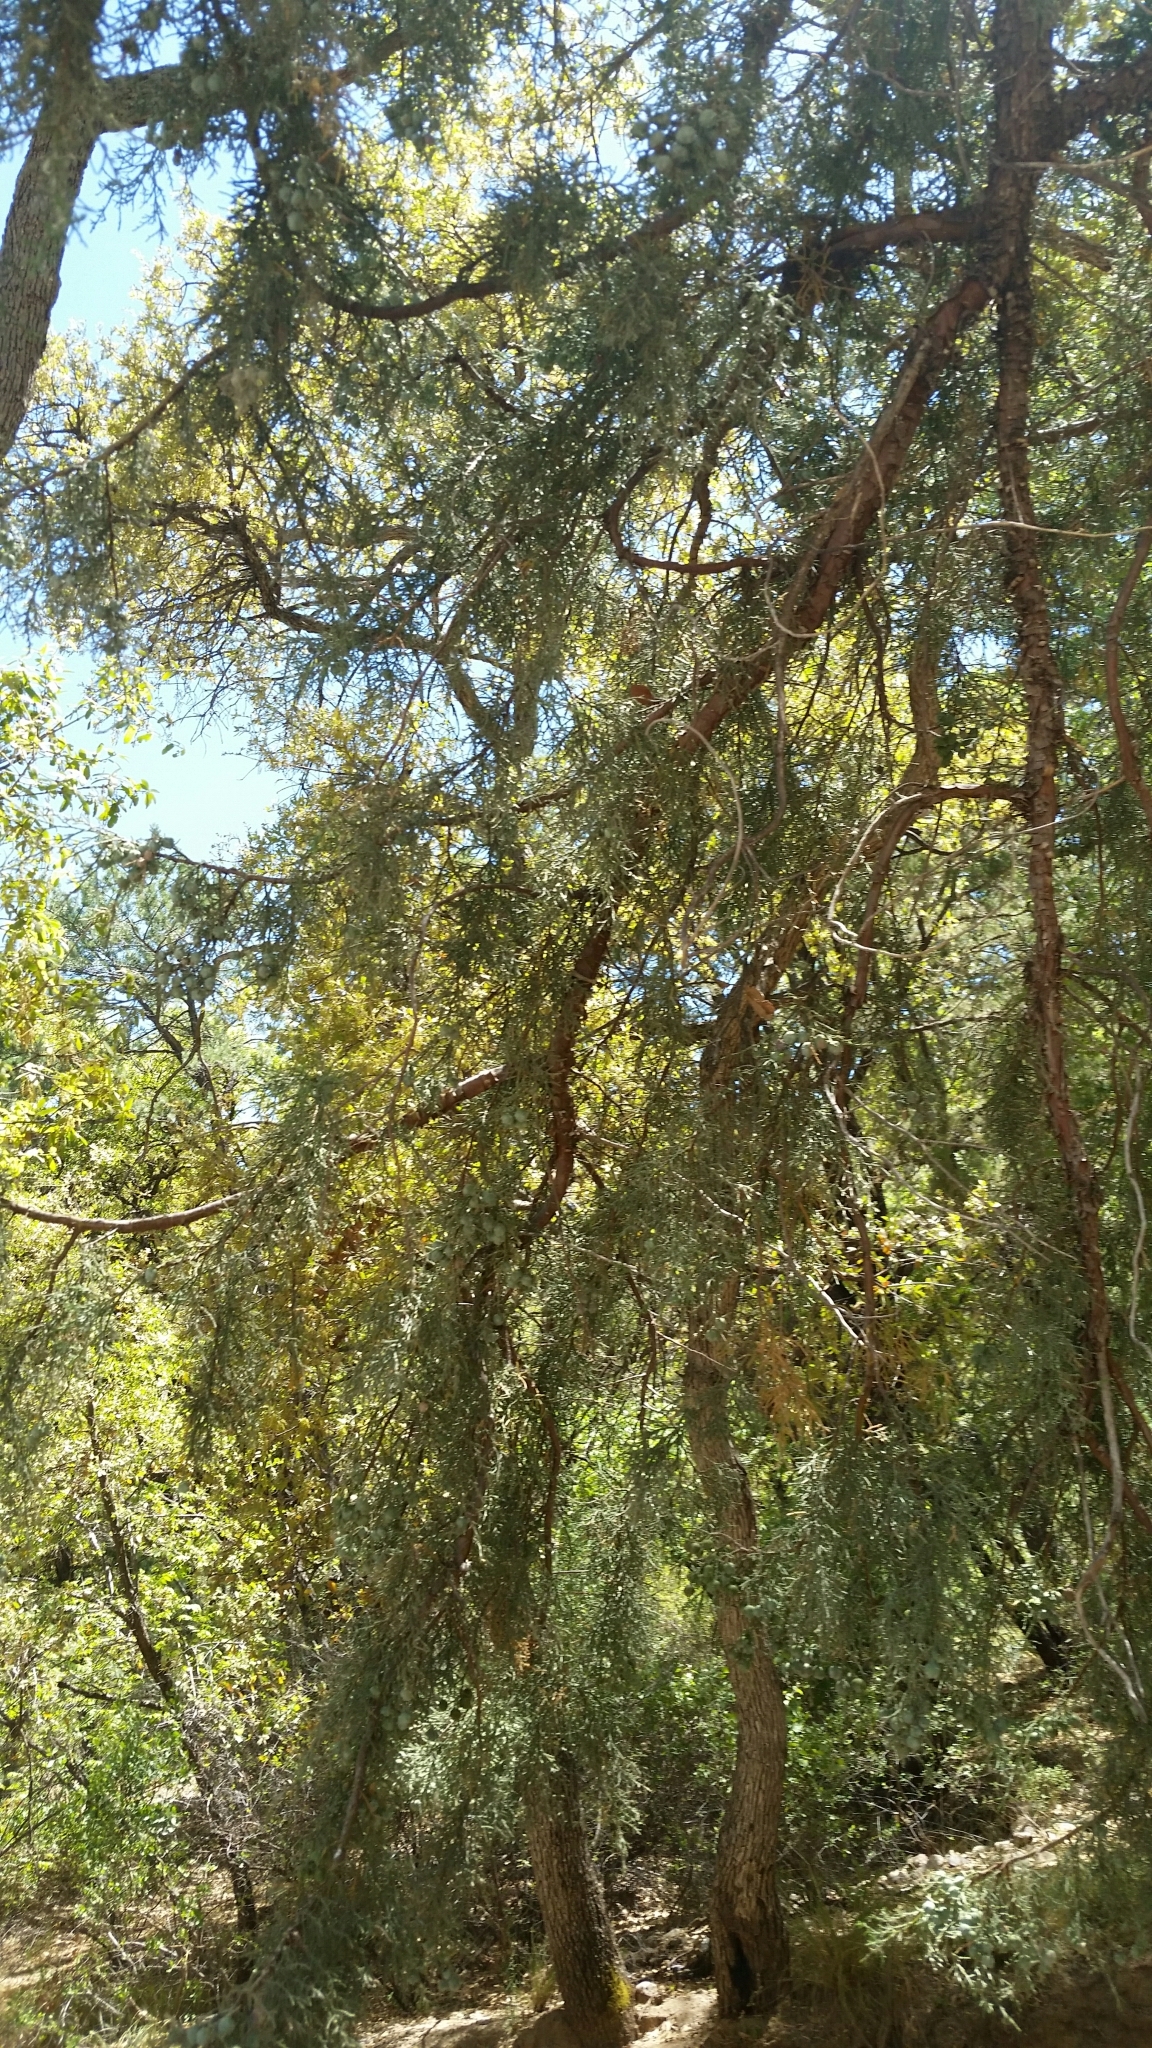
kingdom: Plantae
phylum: Tracheophyta
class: Pinopsida
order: Pinales
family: Cupressaceae
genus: Juniperus
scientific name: Juniperus deppeana
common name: Alligator juniper
